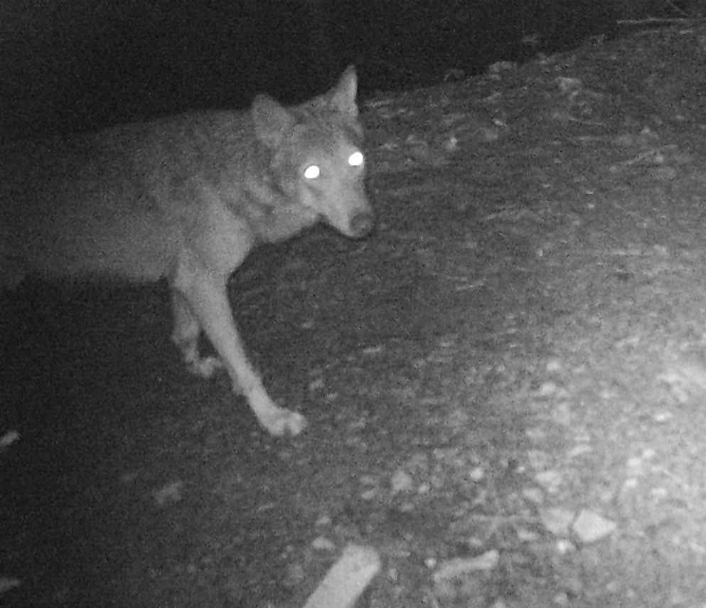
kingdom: Animalia
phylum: Chordata
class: Mammalia
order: Carnivora
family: Canidae
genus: Canis
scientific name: Canis lupus
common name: Gray wolf
